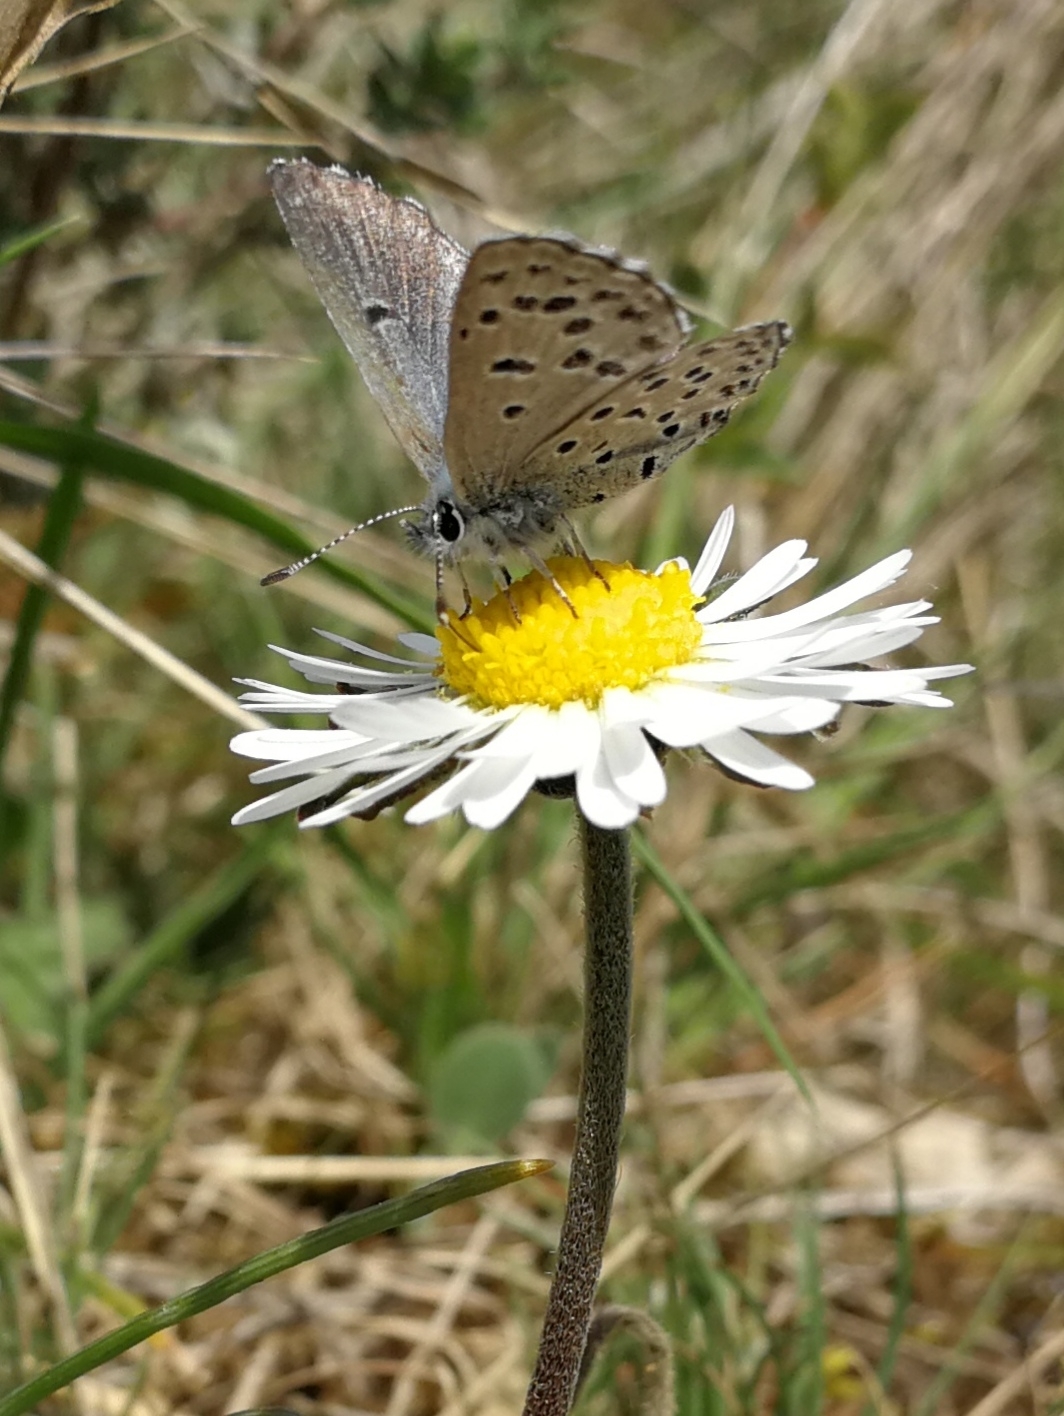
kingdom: Animalia
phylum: Arthropoda
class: Insecta
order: Lepidoptera
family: Lycaenidae
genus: Pseudophilotes
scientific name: Pseudophilotes baton
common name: Baton blue
